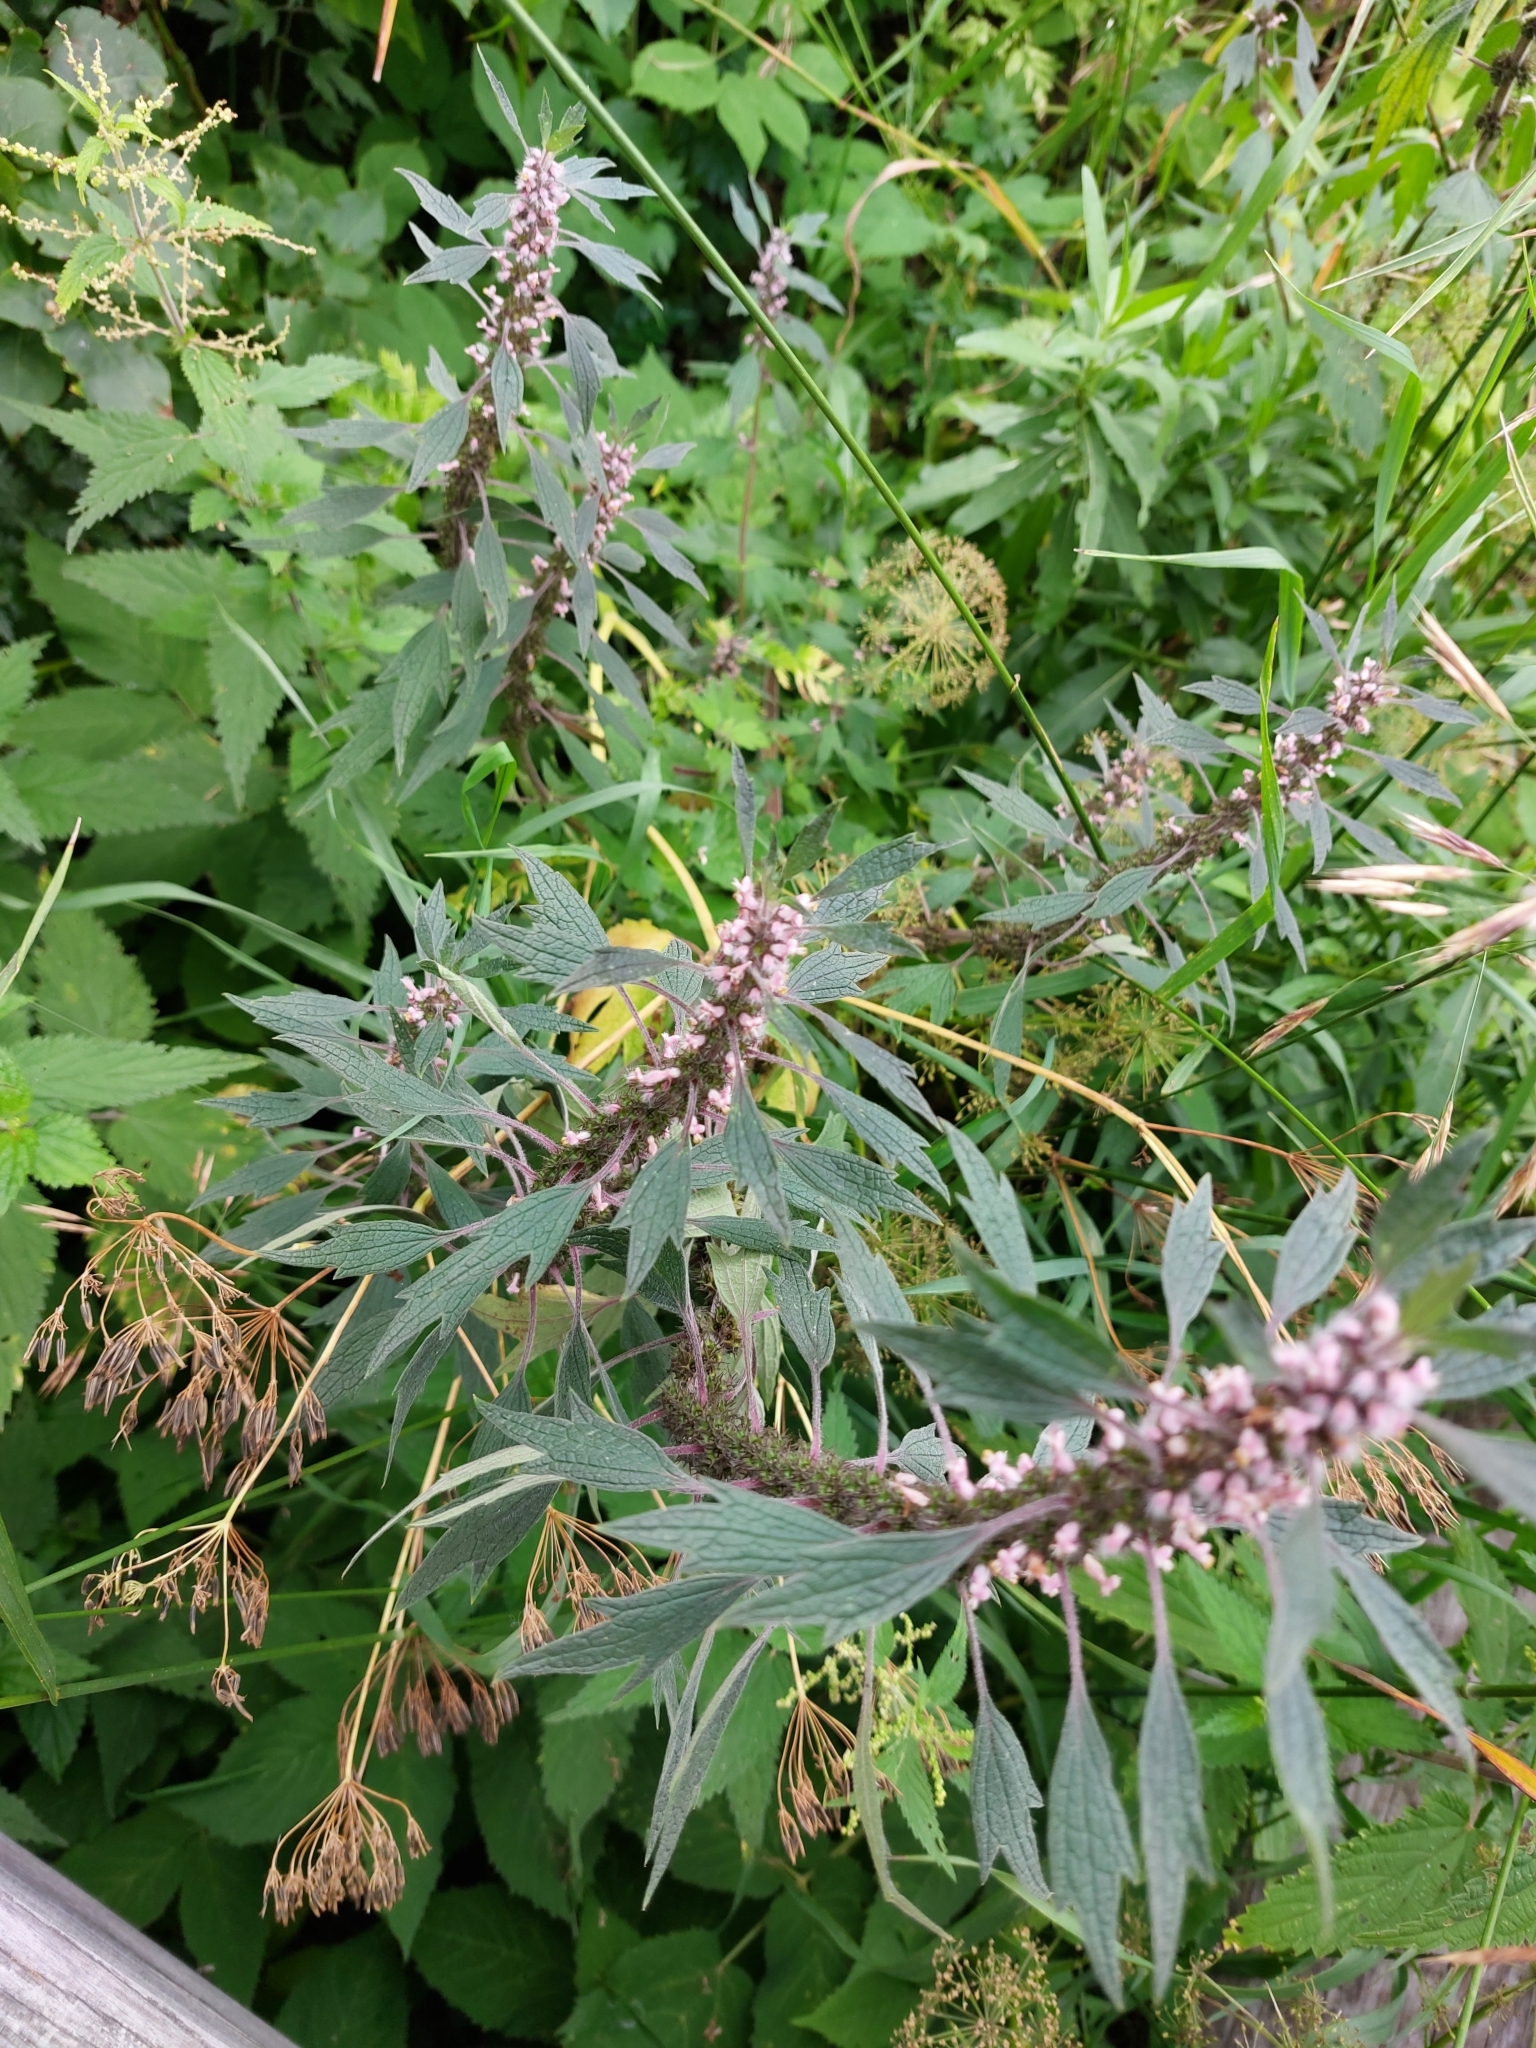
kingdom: Plantae
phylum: Tracheophyta
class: Magnoliopsida
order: Lamiales
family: Lamiaceae
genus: Leonurus
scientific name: Leonurus quinquelobatus
